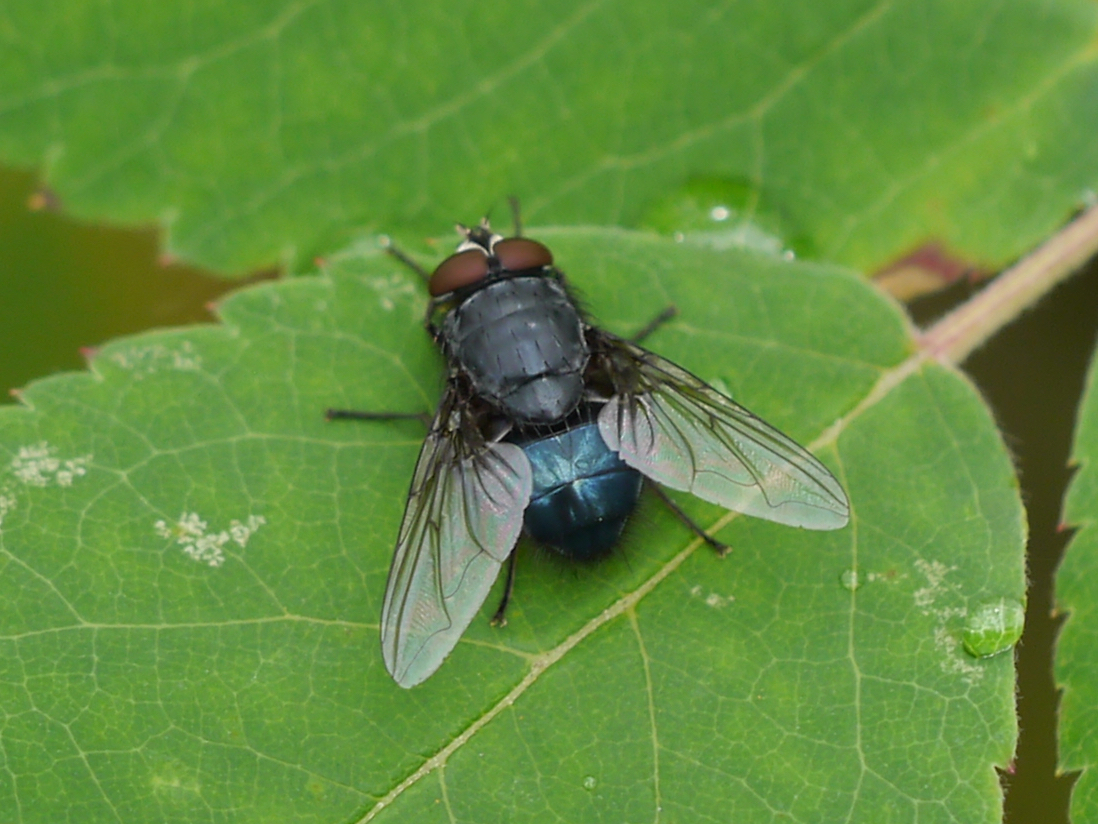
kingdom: Animalia
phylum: Arthropoda
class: Insecta
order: Diptera
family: Calliphoridae
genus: Calliphora
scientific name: Calliphora vomitoria
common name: Blue bottle fly
